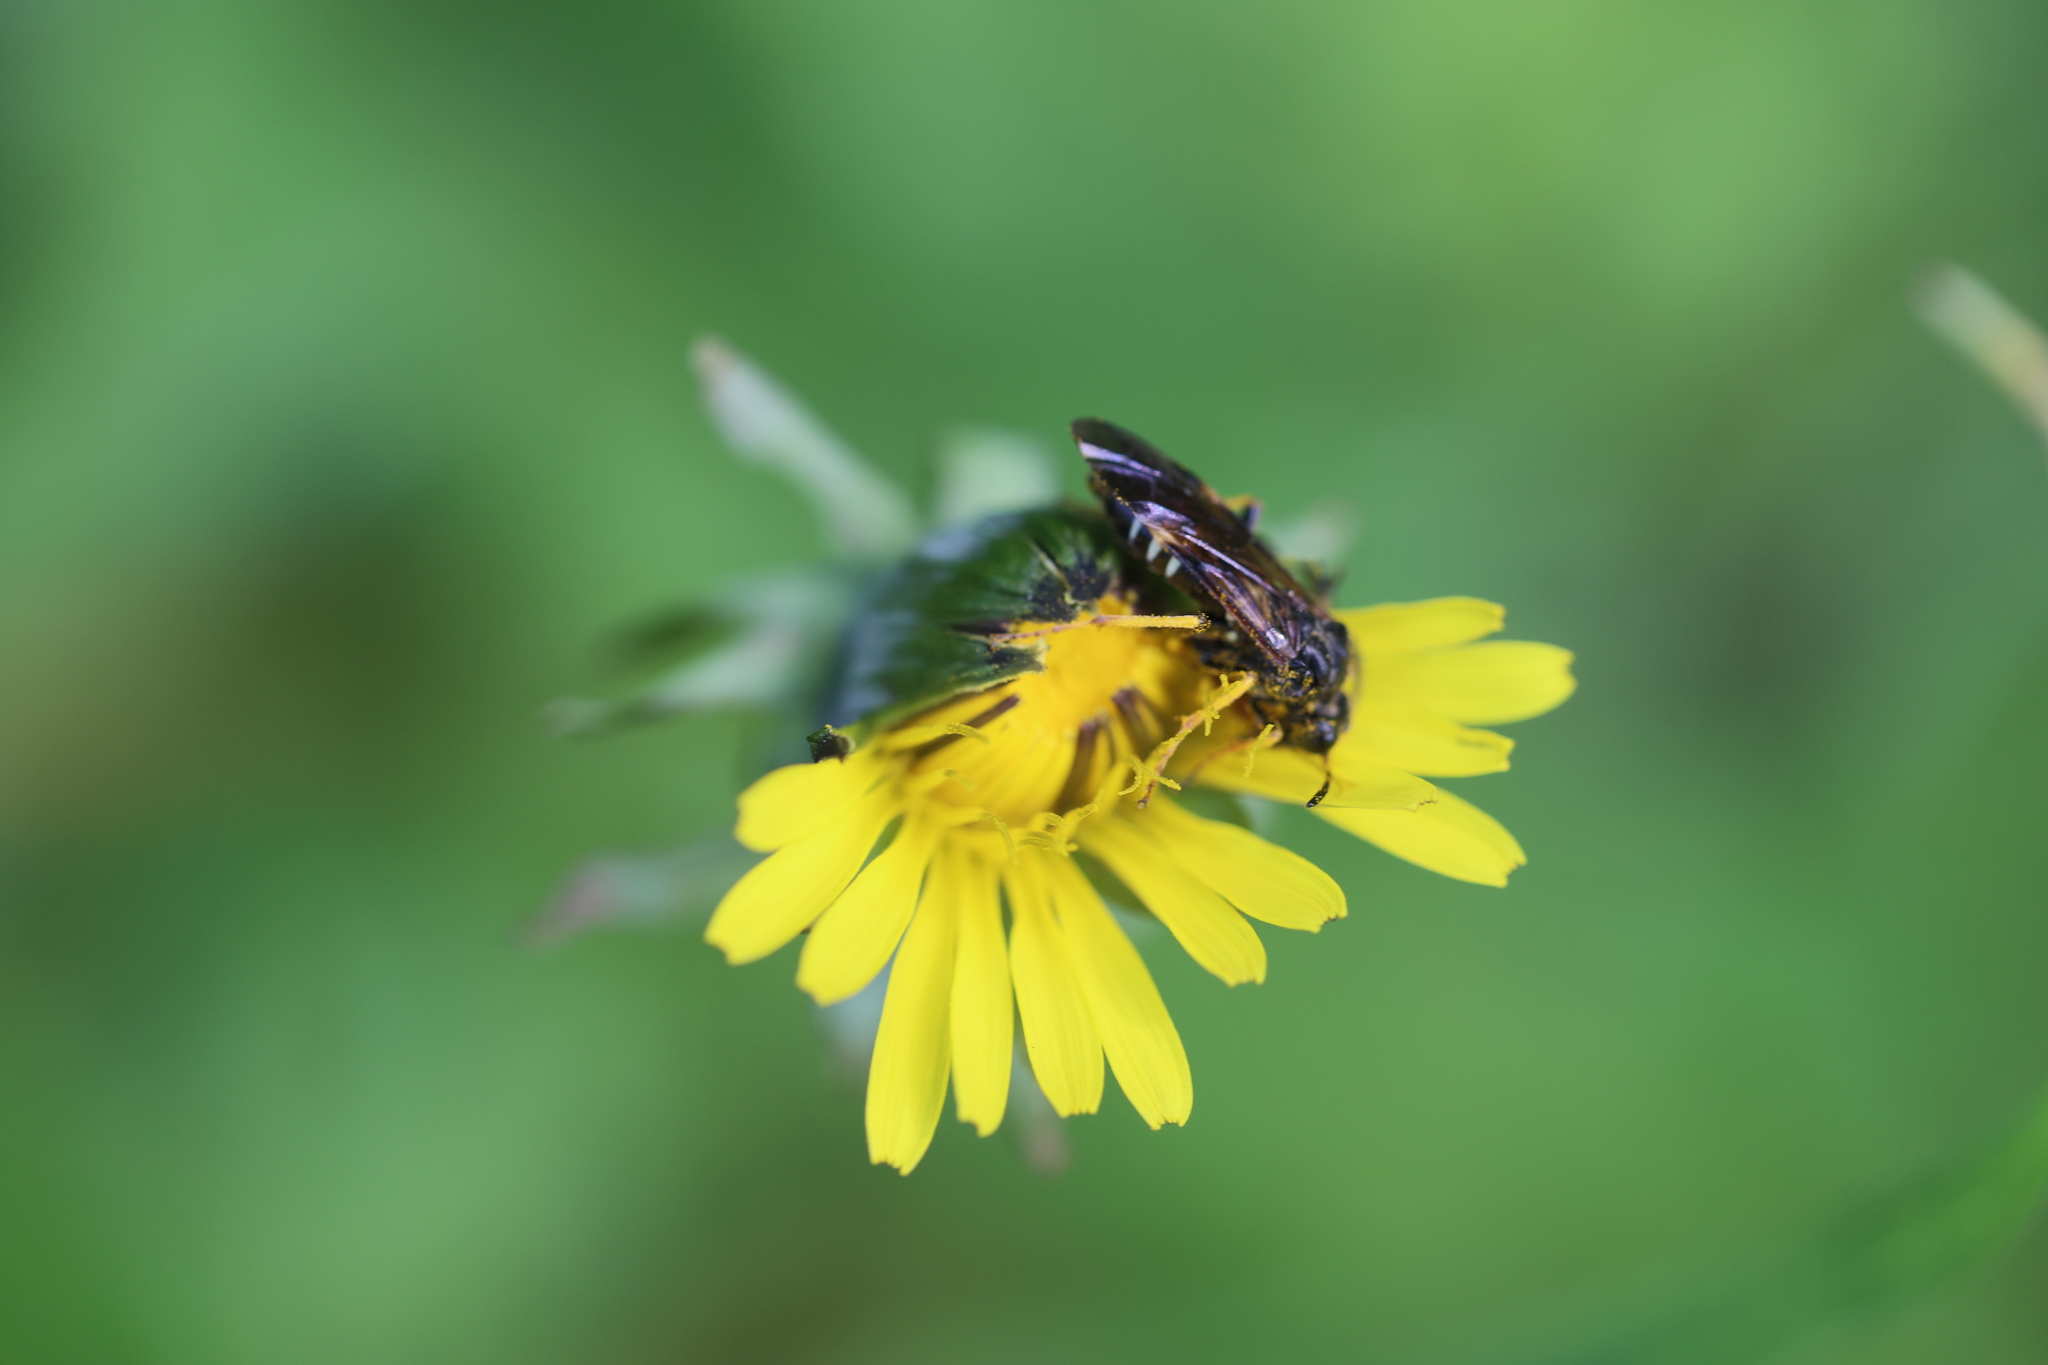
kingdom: Animalia
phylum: Arthropoda
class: Insecta
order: Hymenoptera
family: Tenthredinidae
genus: Tenthredo
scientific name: Tenthredo koehleri
